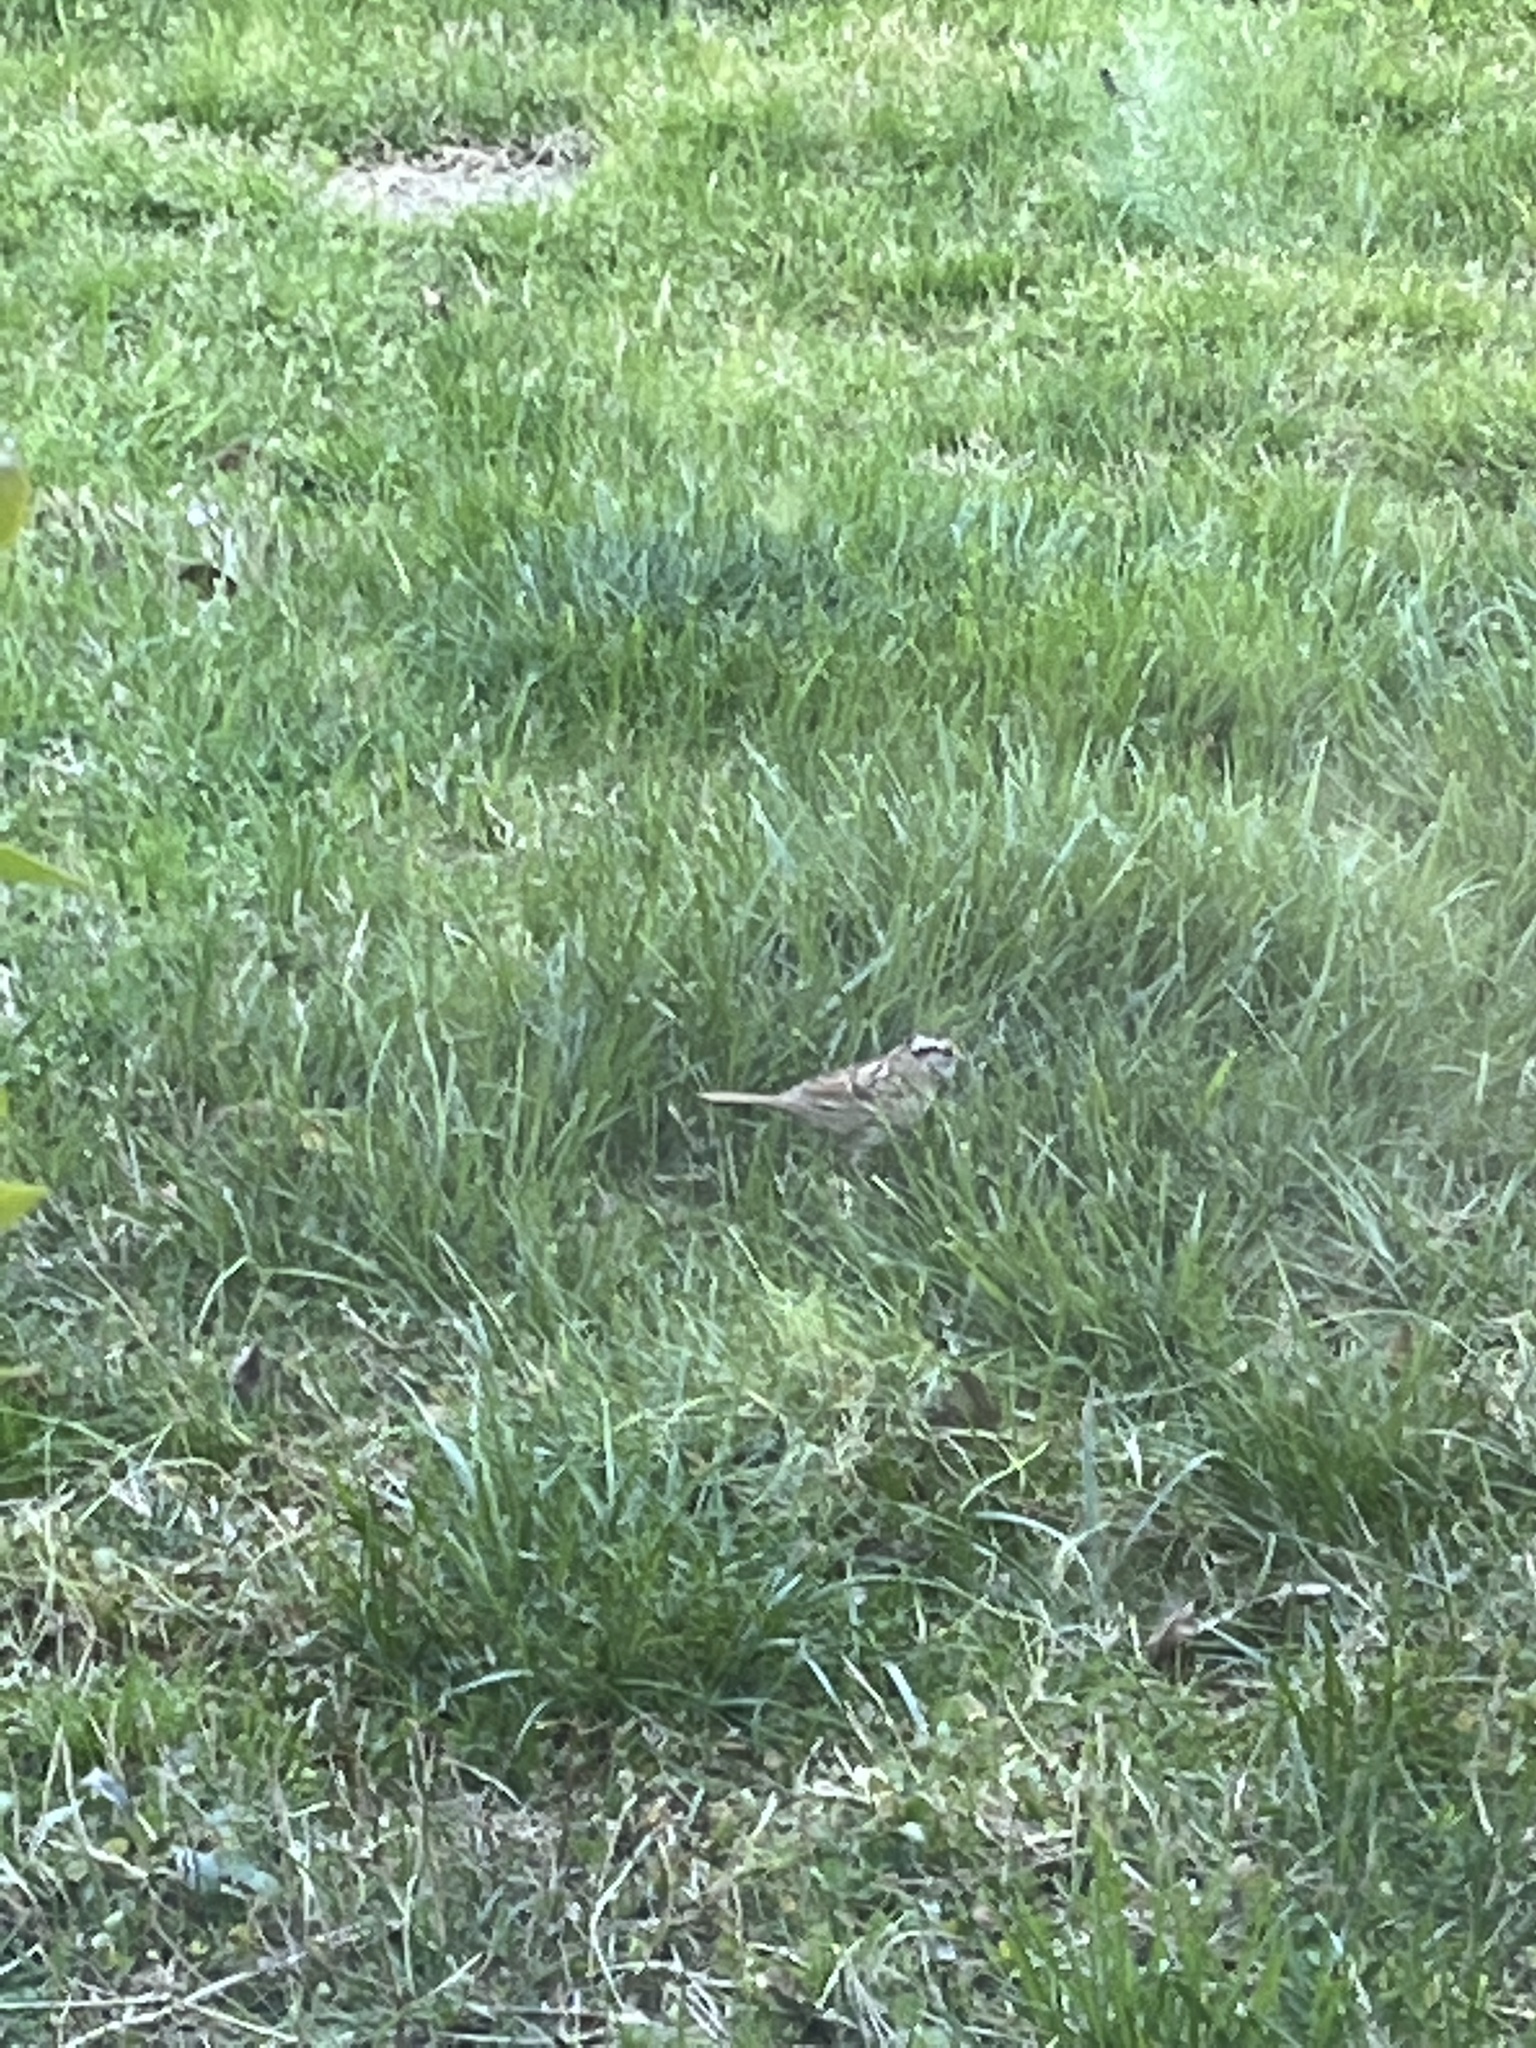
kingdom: Animalia
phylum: Chordata
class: Aves
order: Passeriformes
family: Passerellidae
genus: Zonotrichia
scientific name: Zonotrichia albicollis
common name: White-throated sparrow
